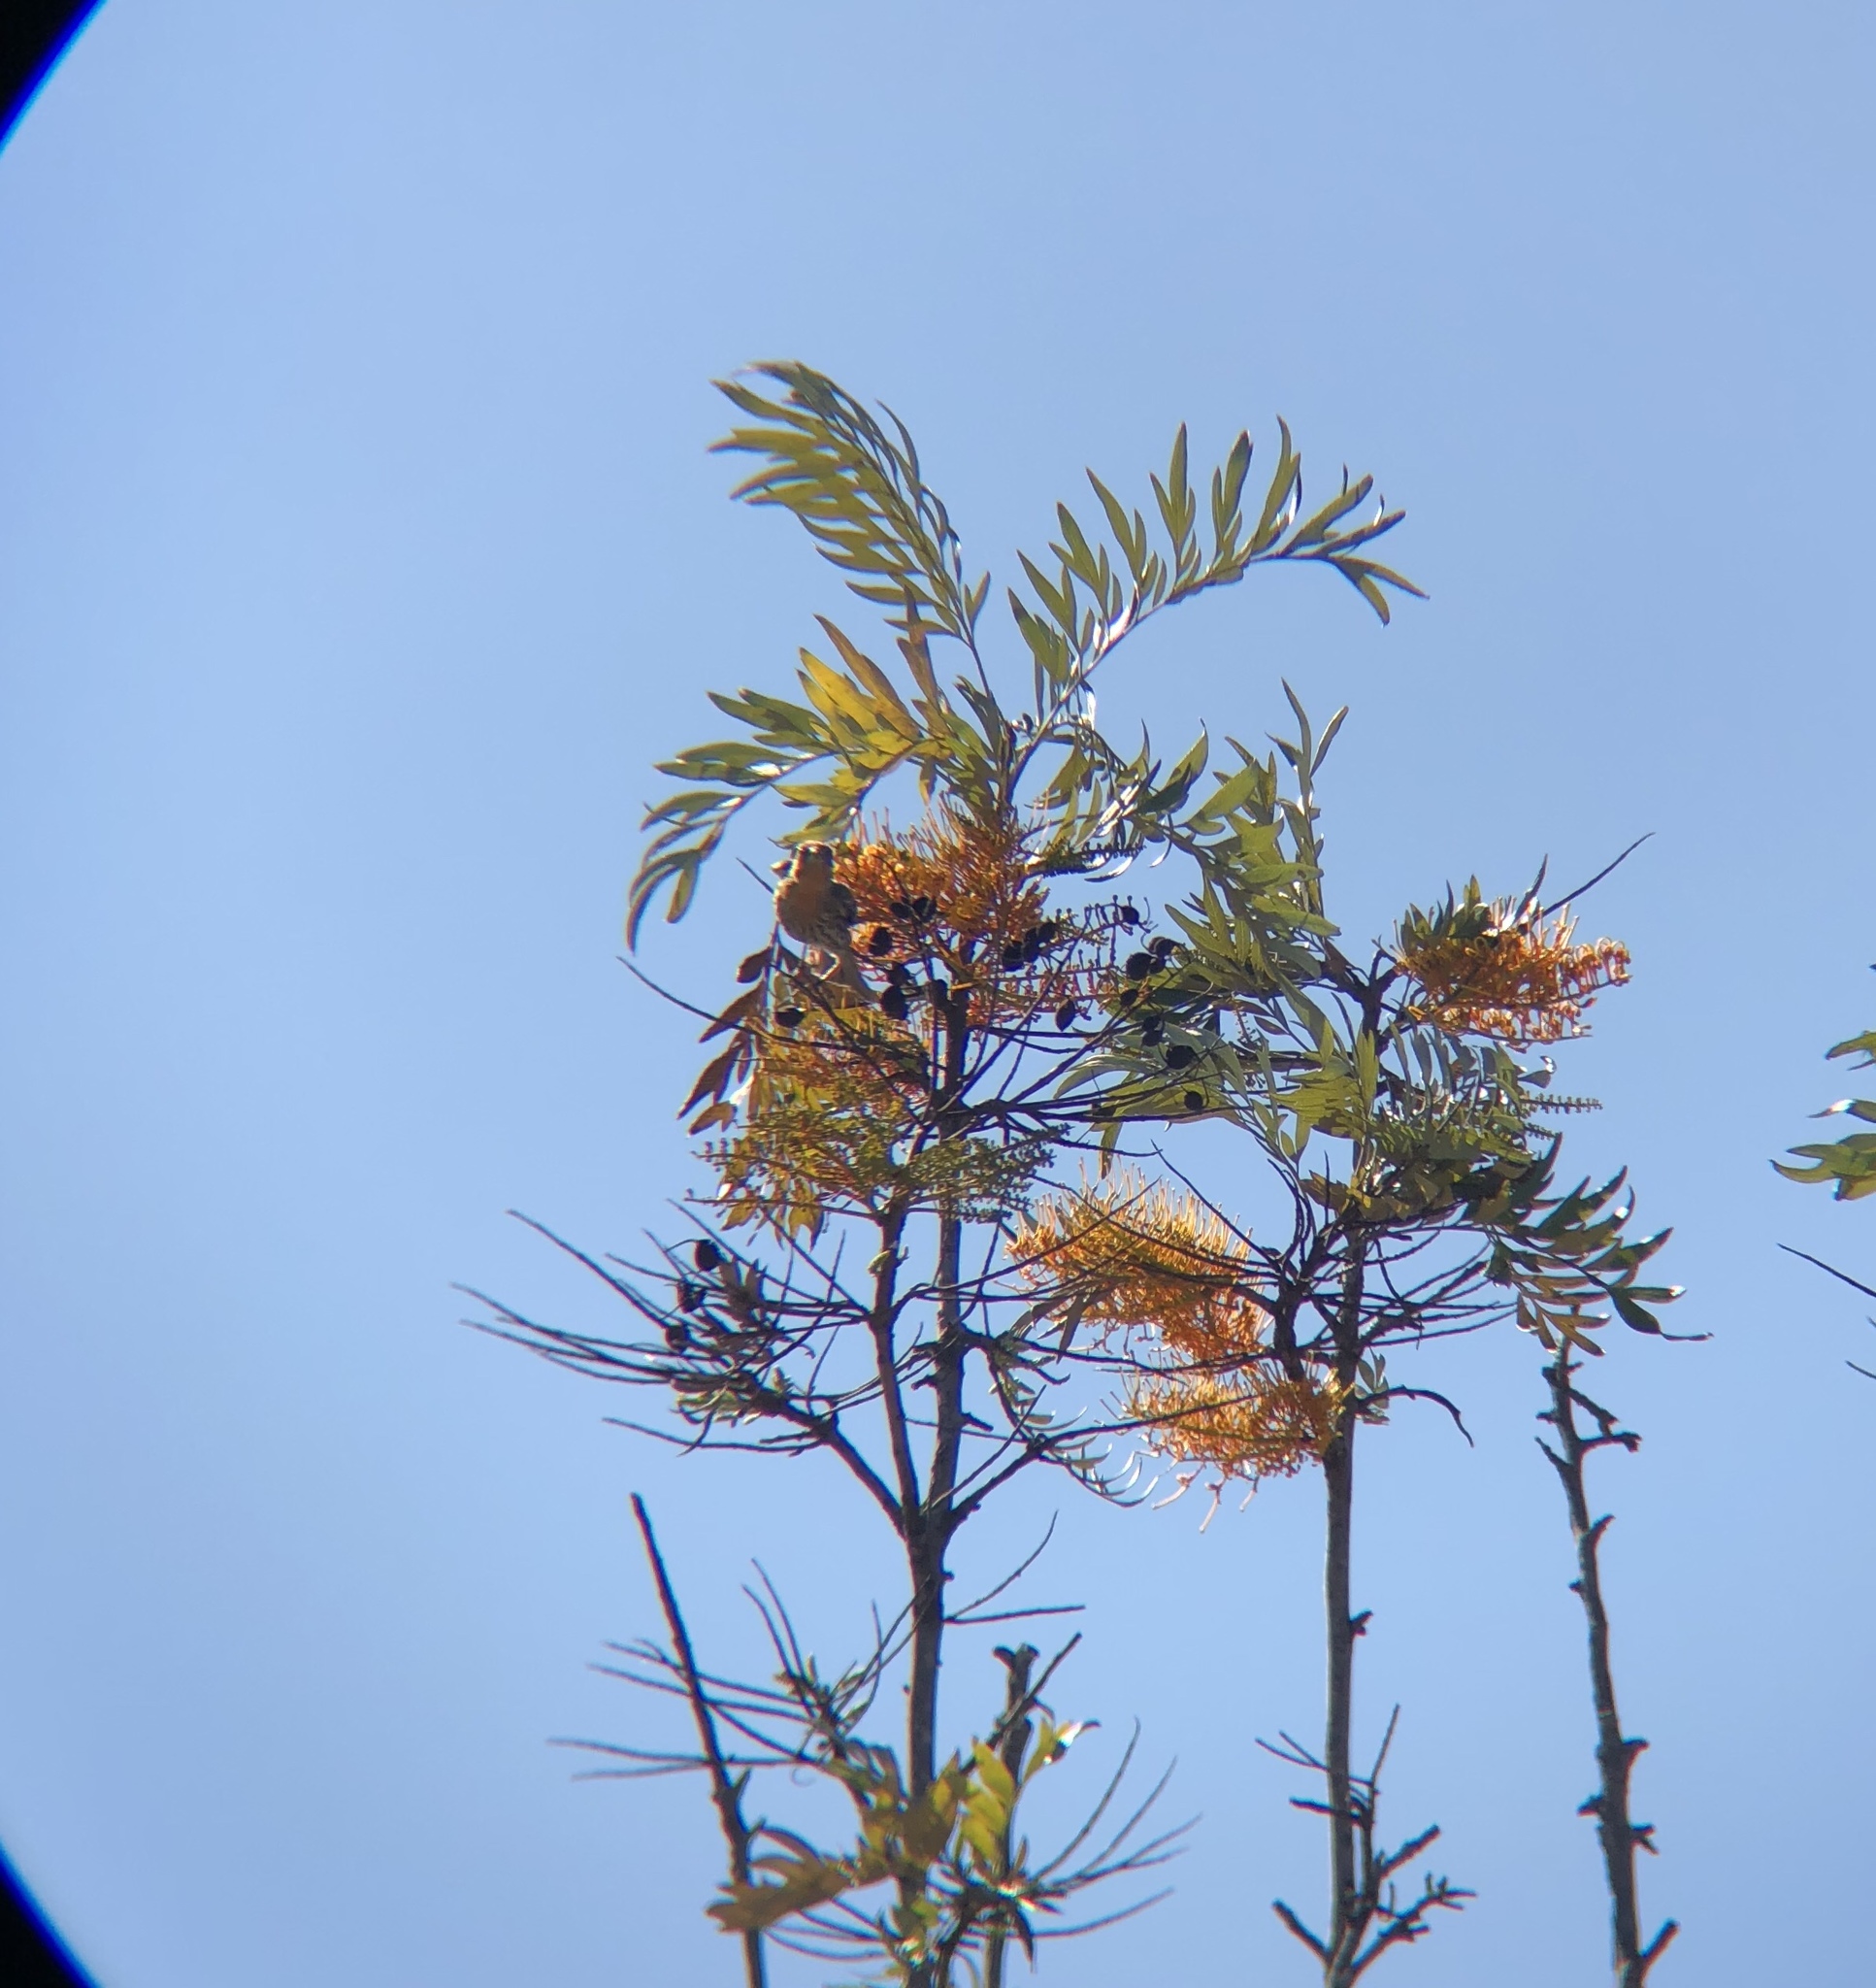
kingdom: Animalia
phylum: Chordata
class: Aves
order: Passeriformes
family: Fringillidae
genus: Haemorhous
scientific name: Haemorhous mexicanus
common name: House finch
